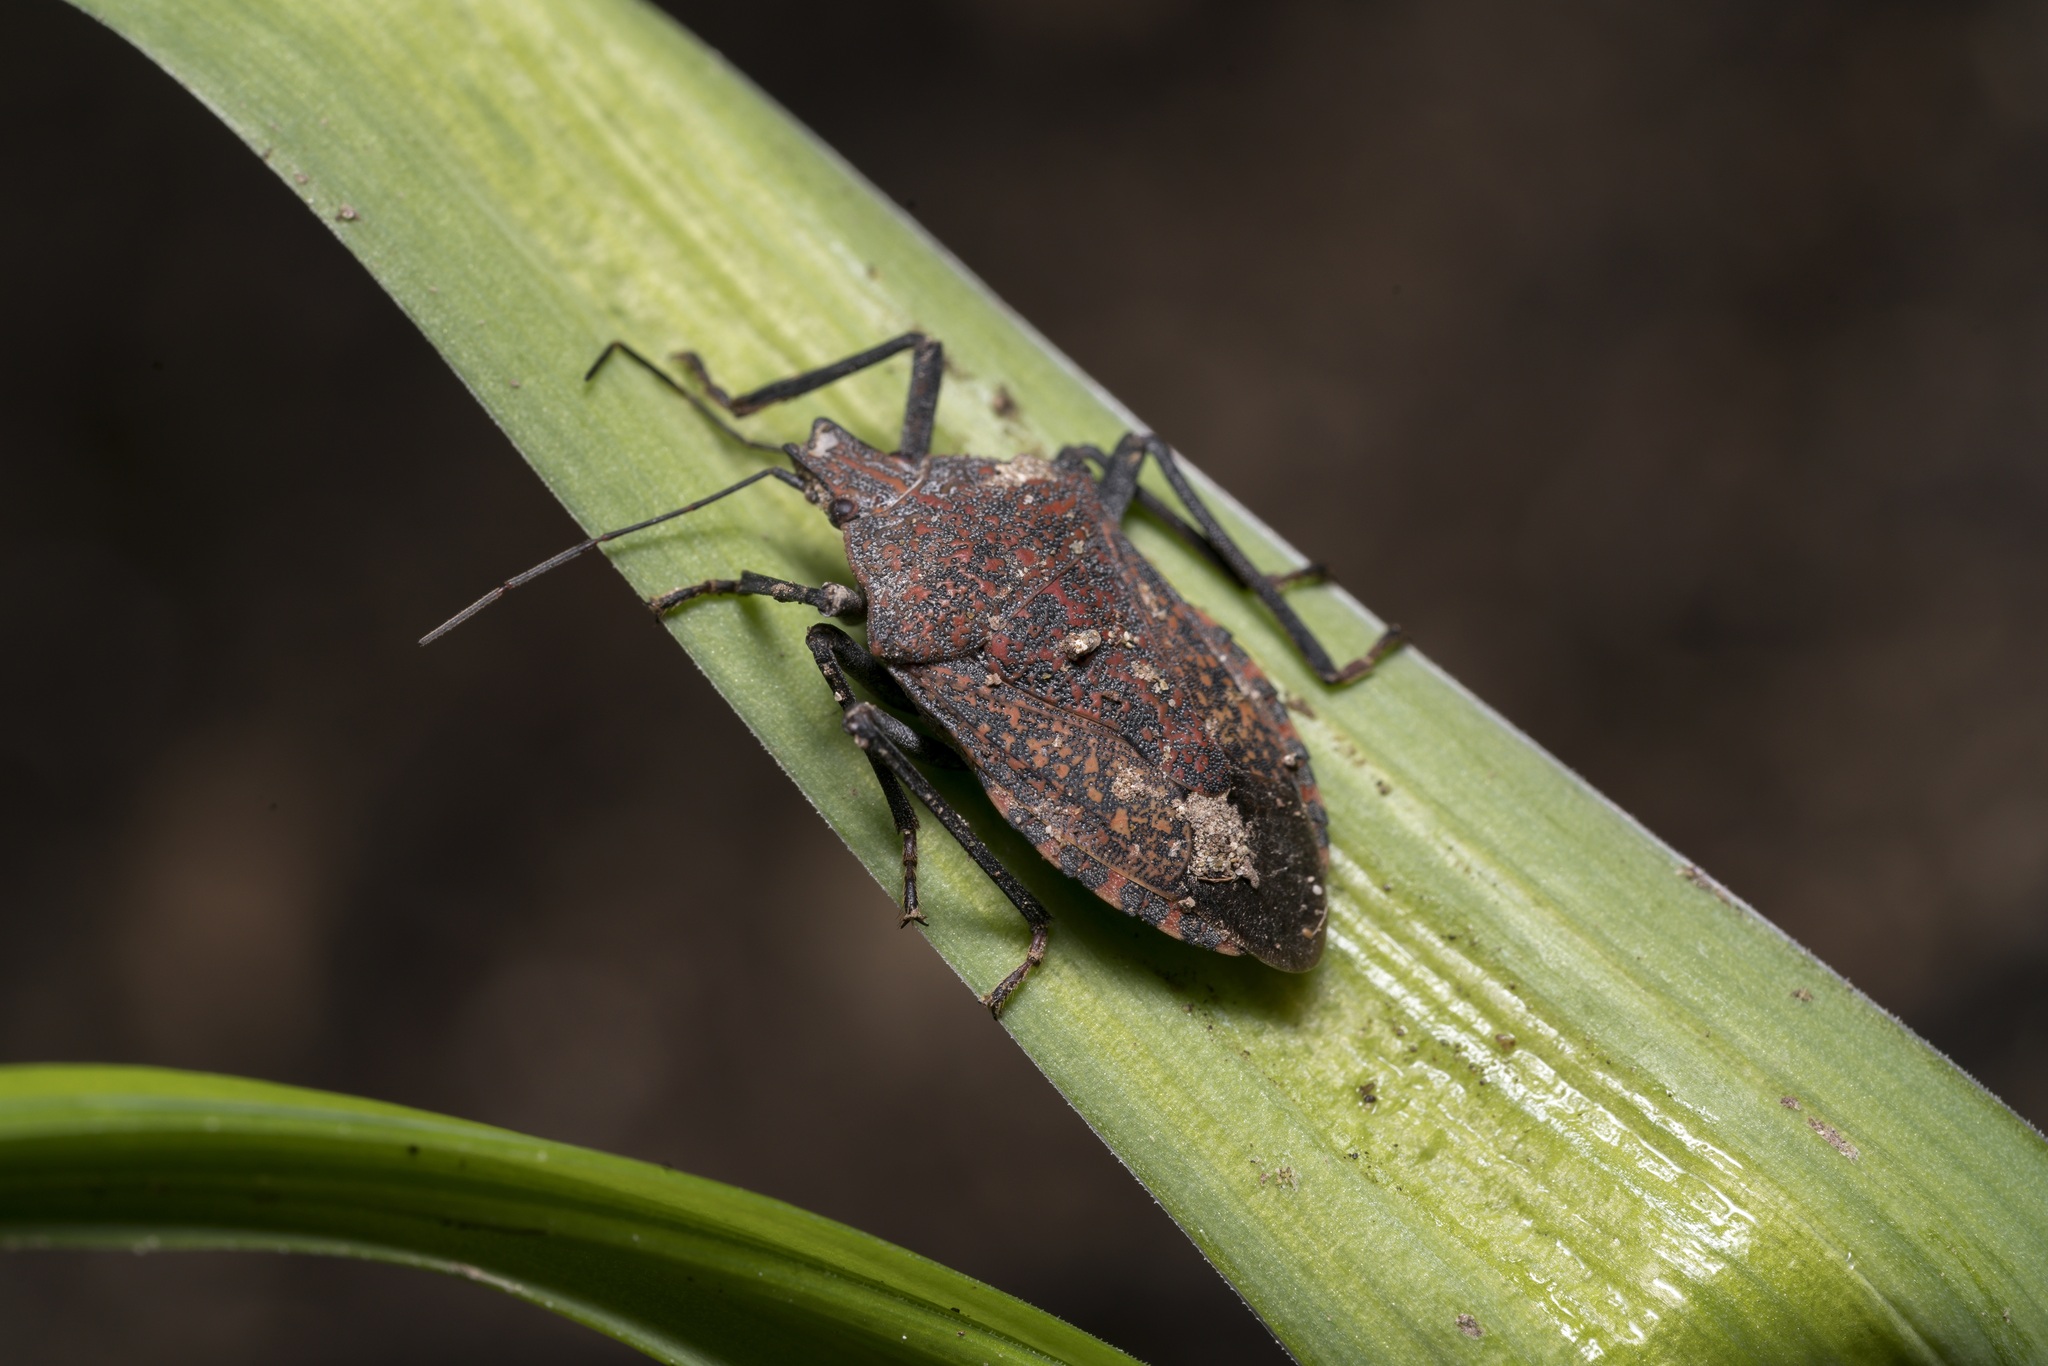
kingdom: Animalia
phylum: Arthropoda
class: Insecta
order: Hemiptera
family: Pentatomidae
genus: Apodiphus
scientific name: Apodiphus amygdali
